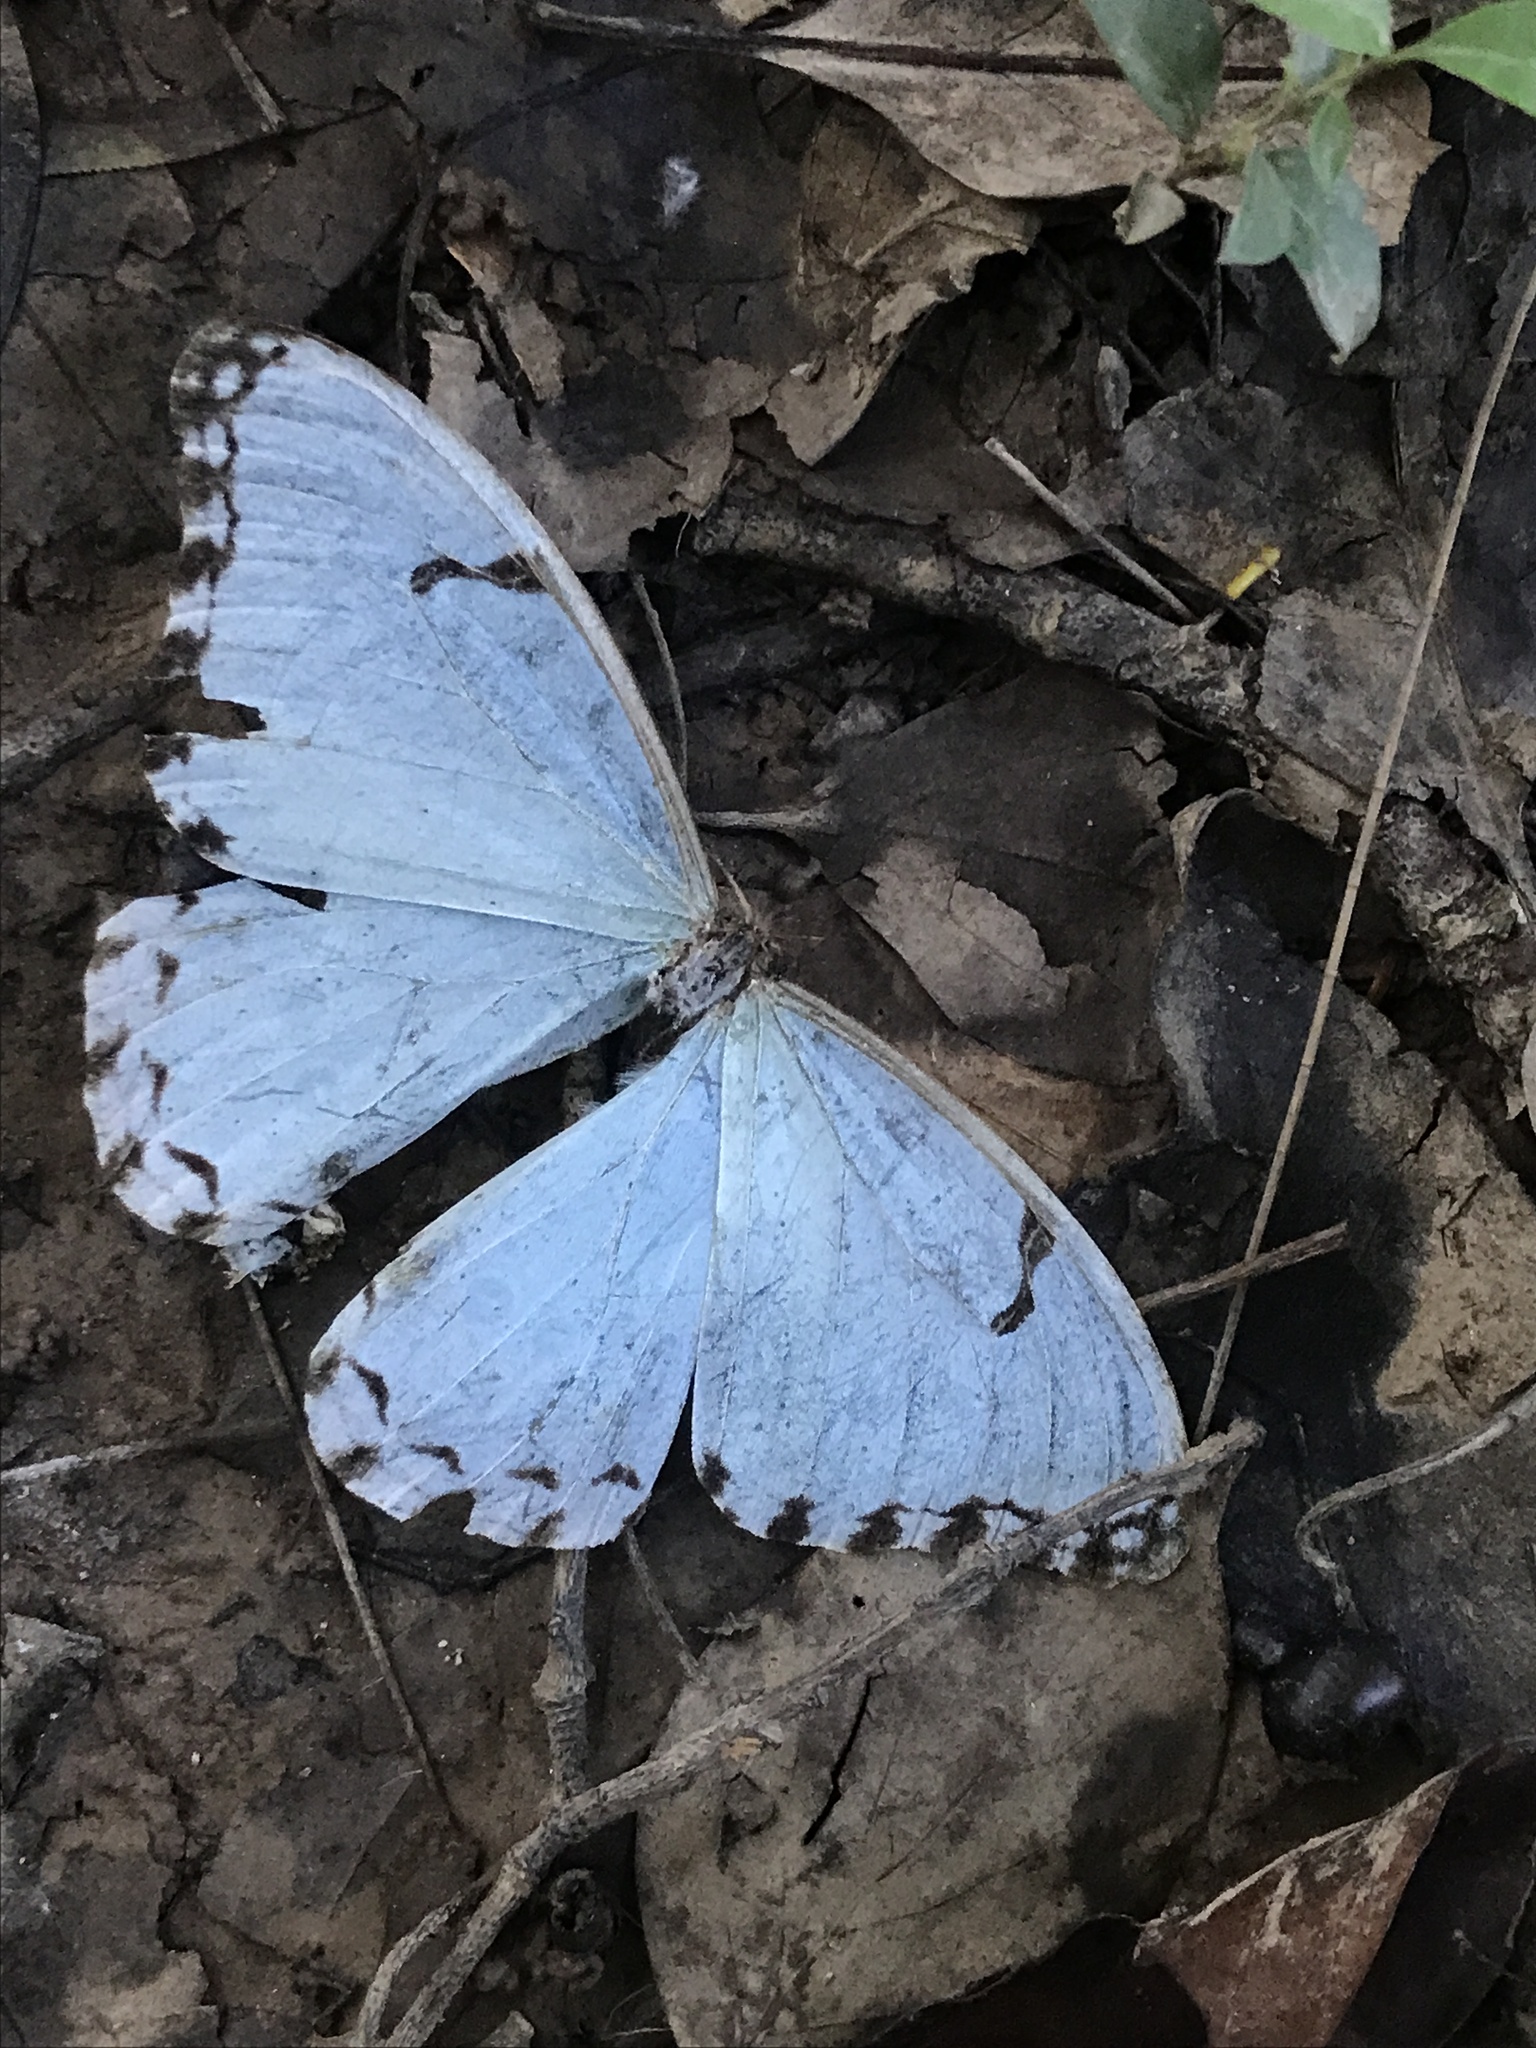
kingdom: Animalia
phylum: Arthropoda
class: Insecta
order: Lepidoptera
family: Nymphalidae
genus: Morpho
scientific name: Morpho epistrophus
